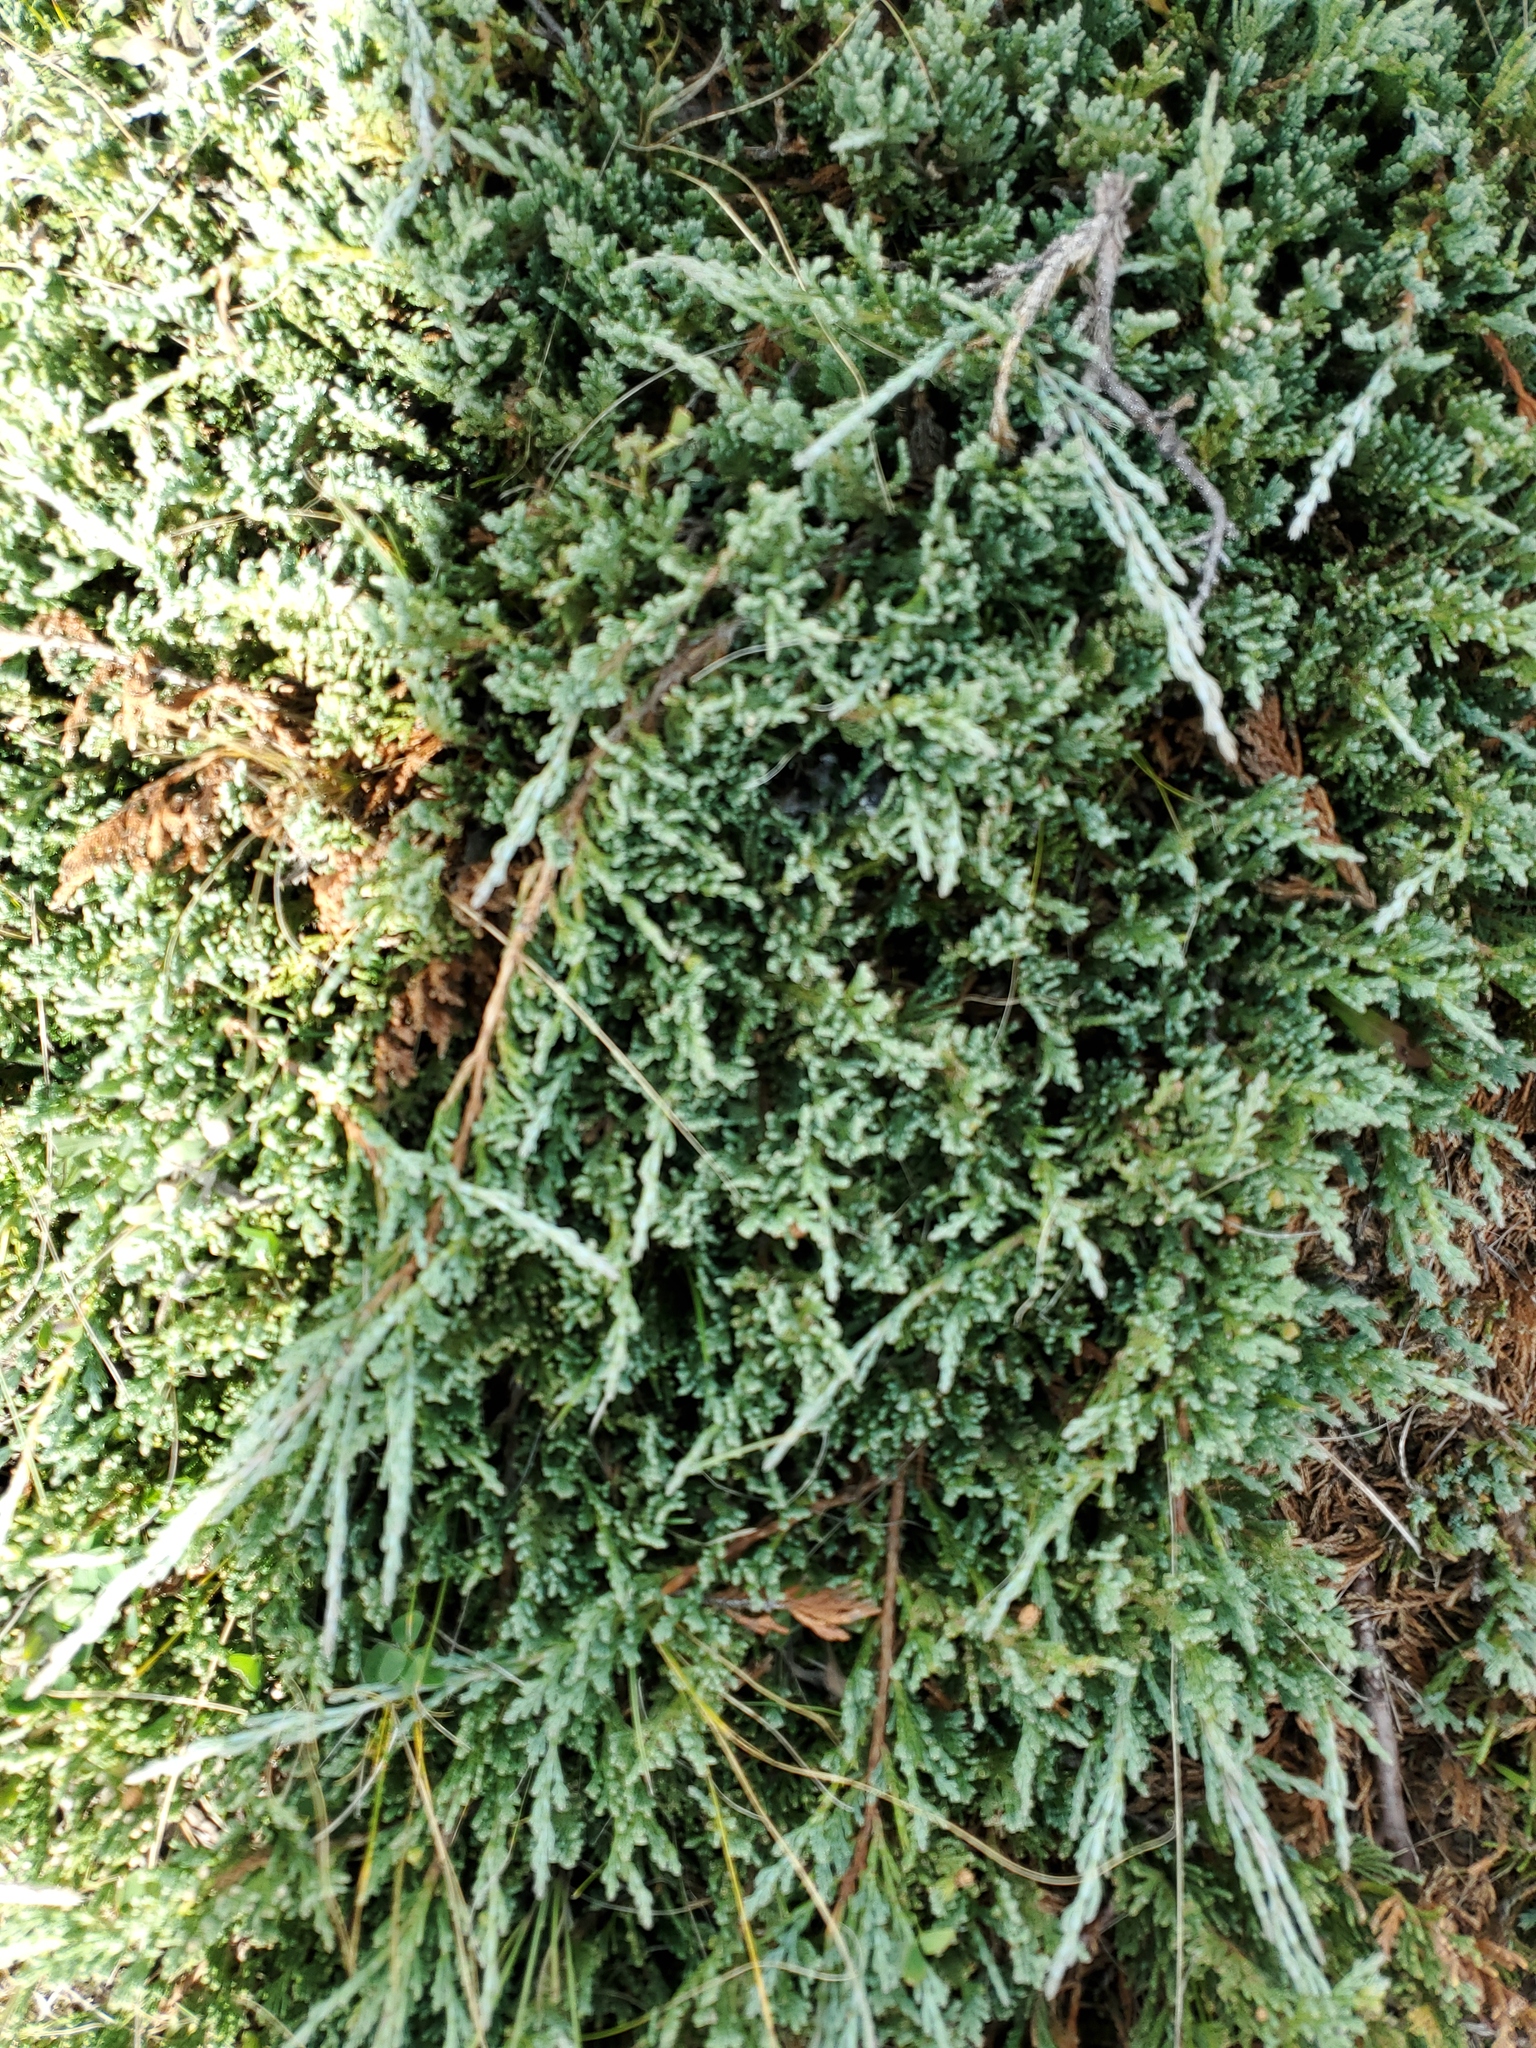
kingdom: Plantae
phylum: Tracheophyta
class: Pinopsida
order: Pinales
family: Cupressaceae
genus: Juniperus
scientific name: Juniperus horizontalis
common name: Creeping juniper
